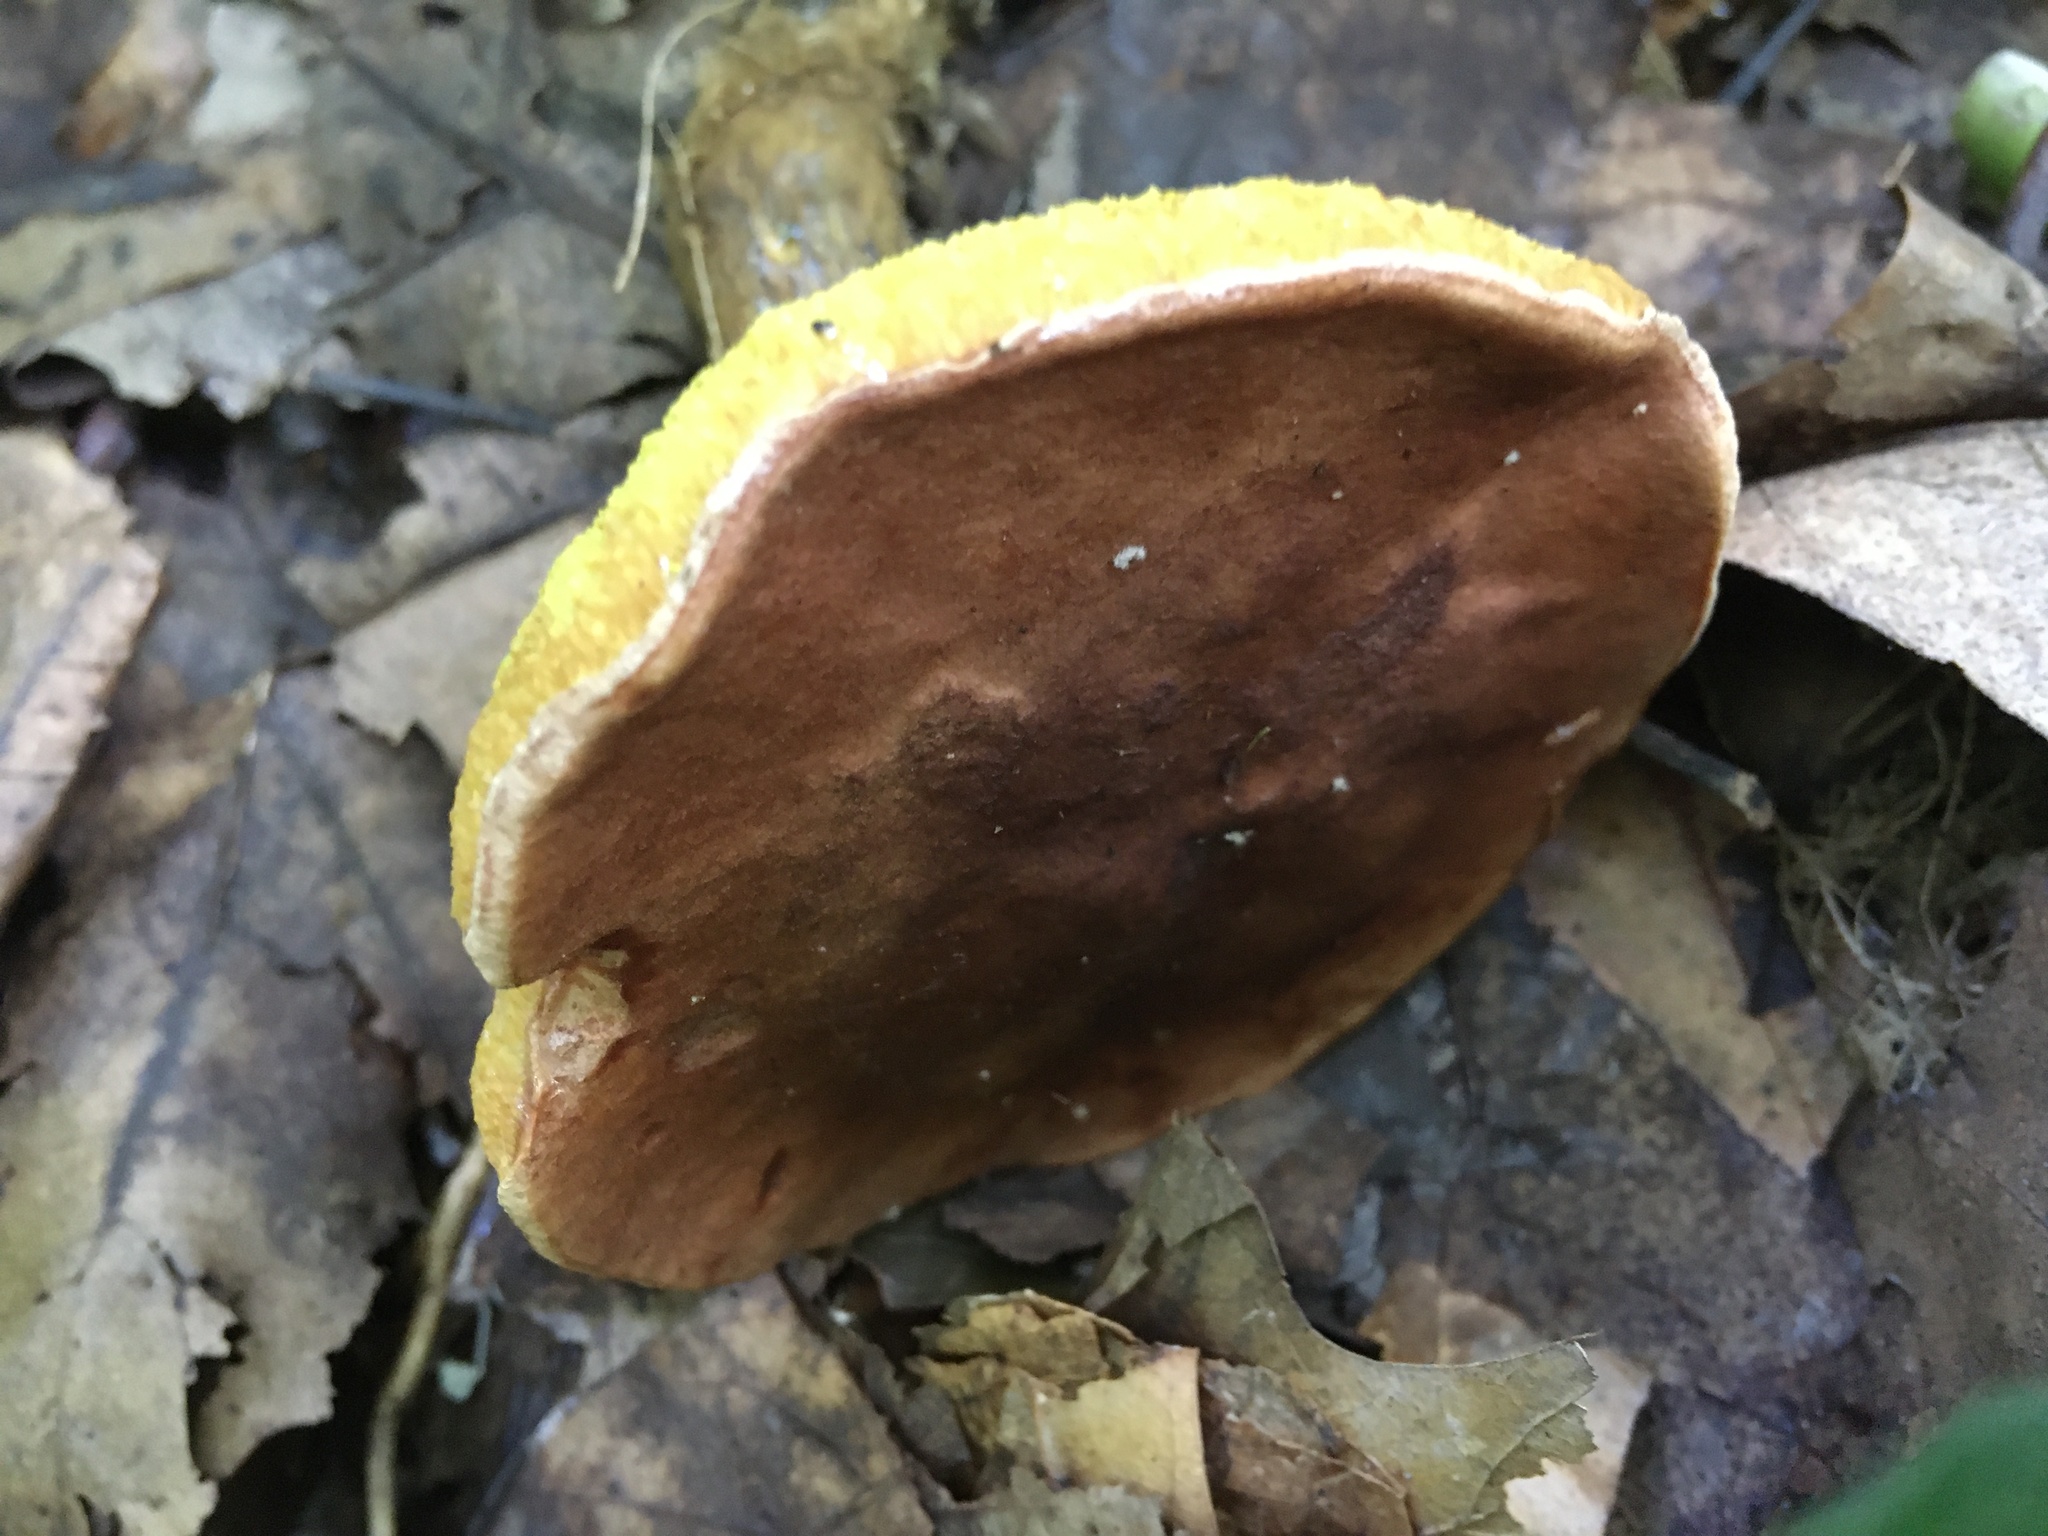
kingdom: Fungi
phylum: Basidiomycota
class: Agaricomycetes
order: Boletales
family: Boletaceae
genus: Aureoboletus
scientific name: Aureoboletus innixus
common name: Clustered brown bolete
